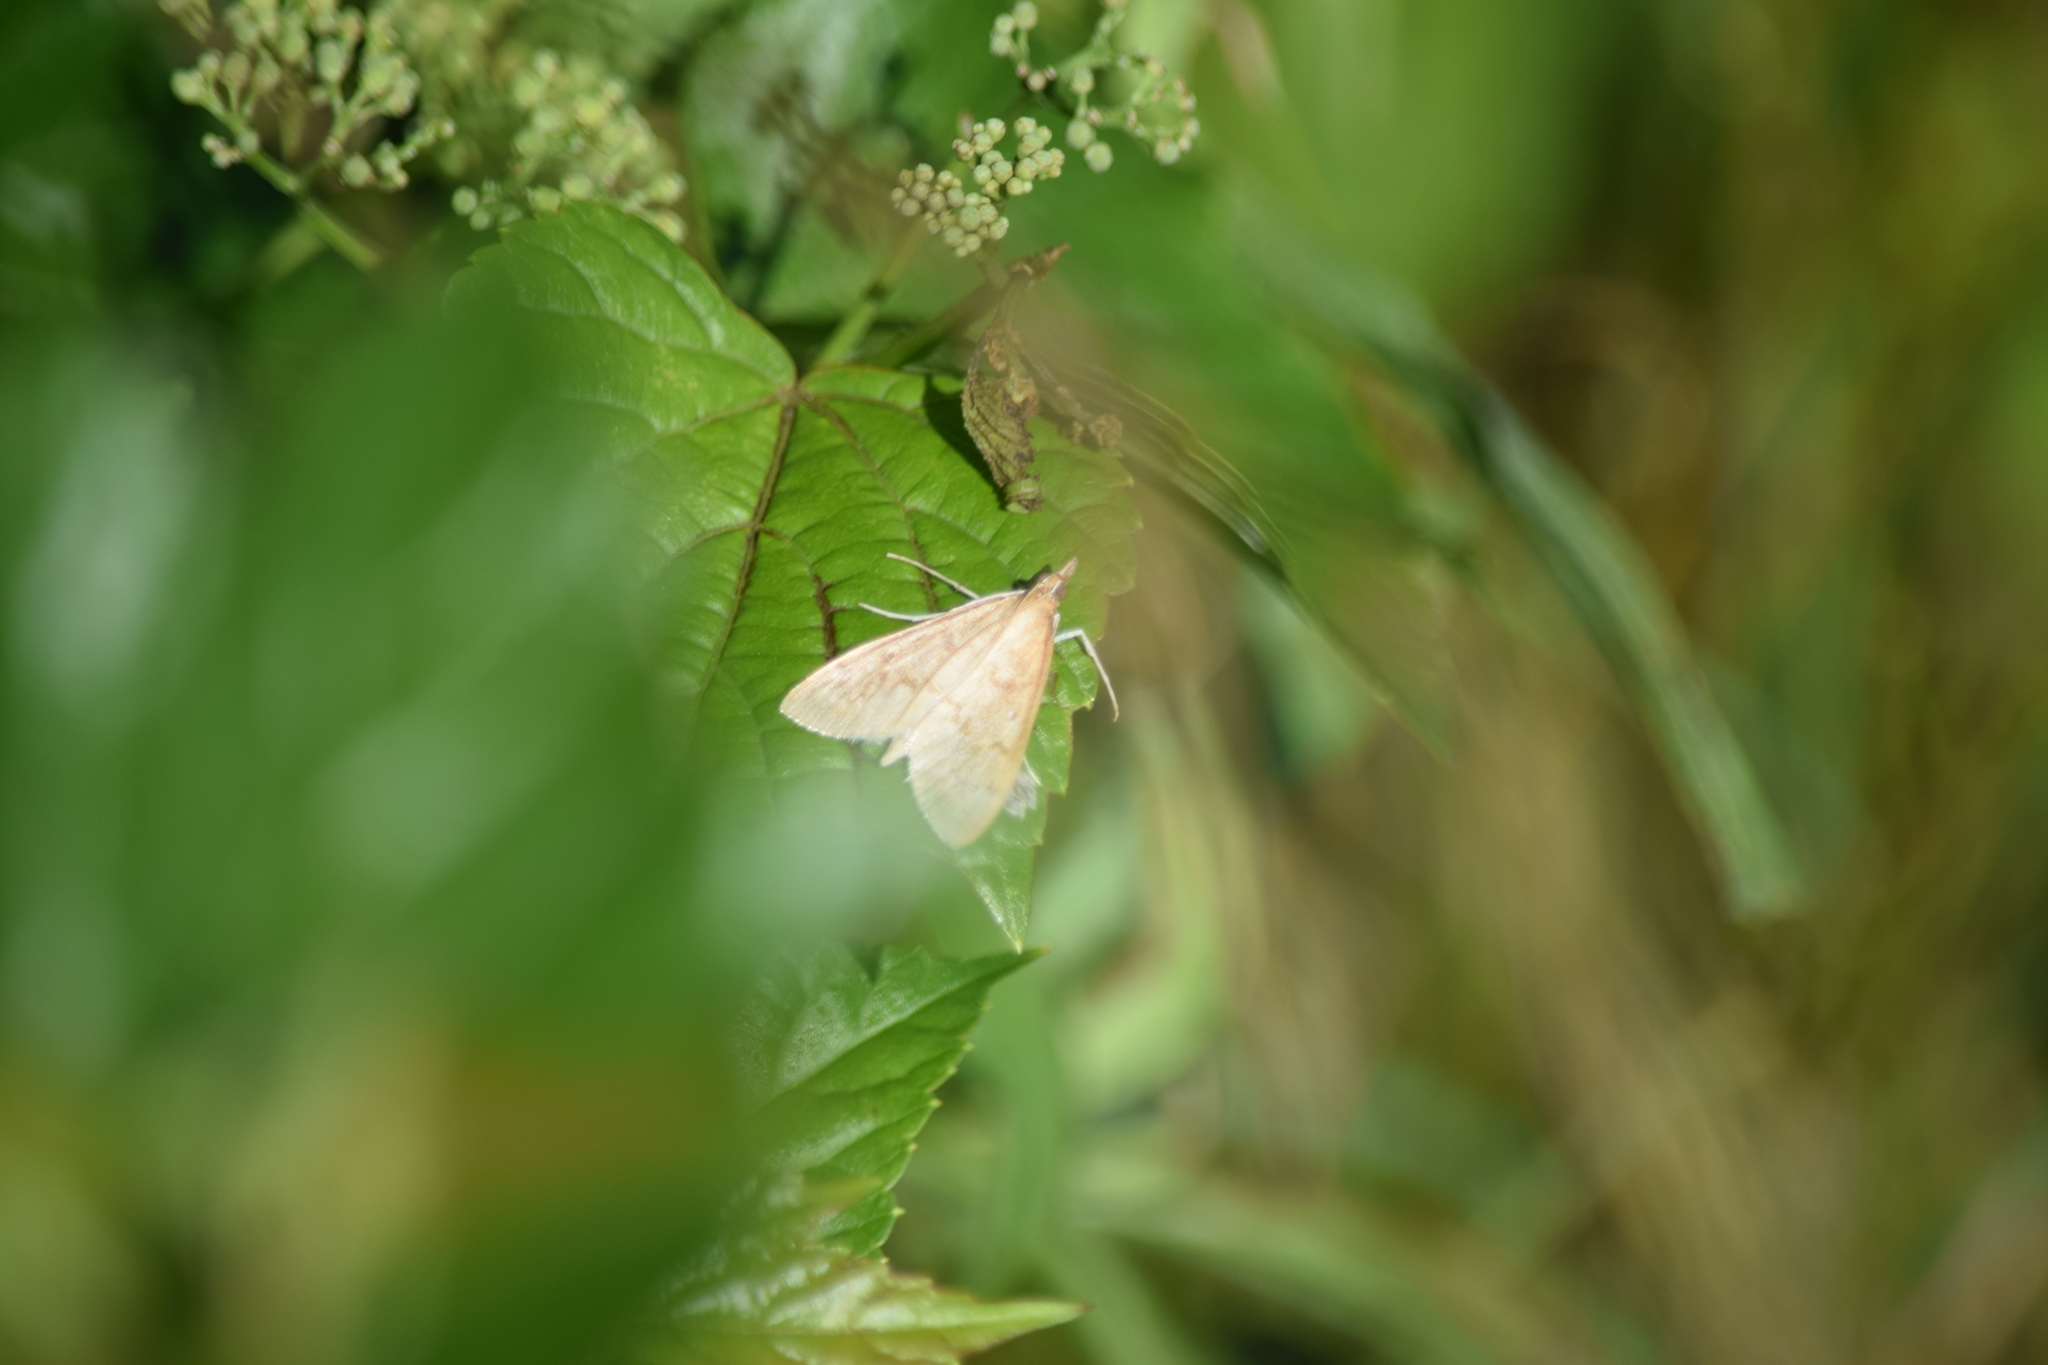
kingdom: Animalia
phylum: Arthropoda
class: Insecta
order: Lepidoptera
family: Crambidae
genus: Saucrobotys
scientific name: Saucrobotys futilalis
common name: Dogbane saucrobotys moth
